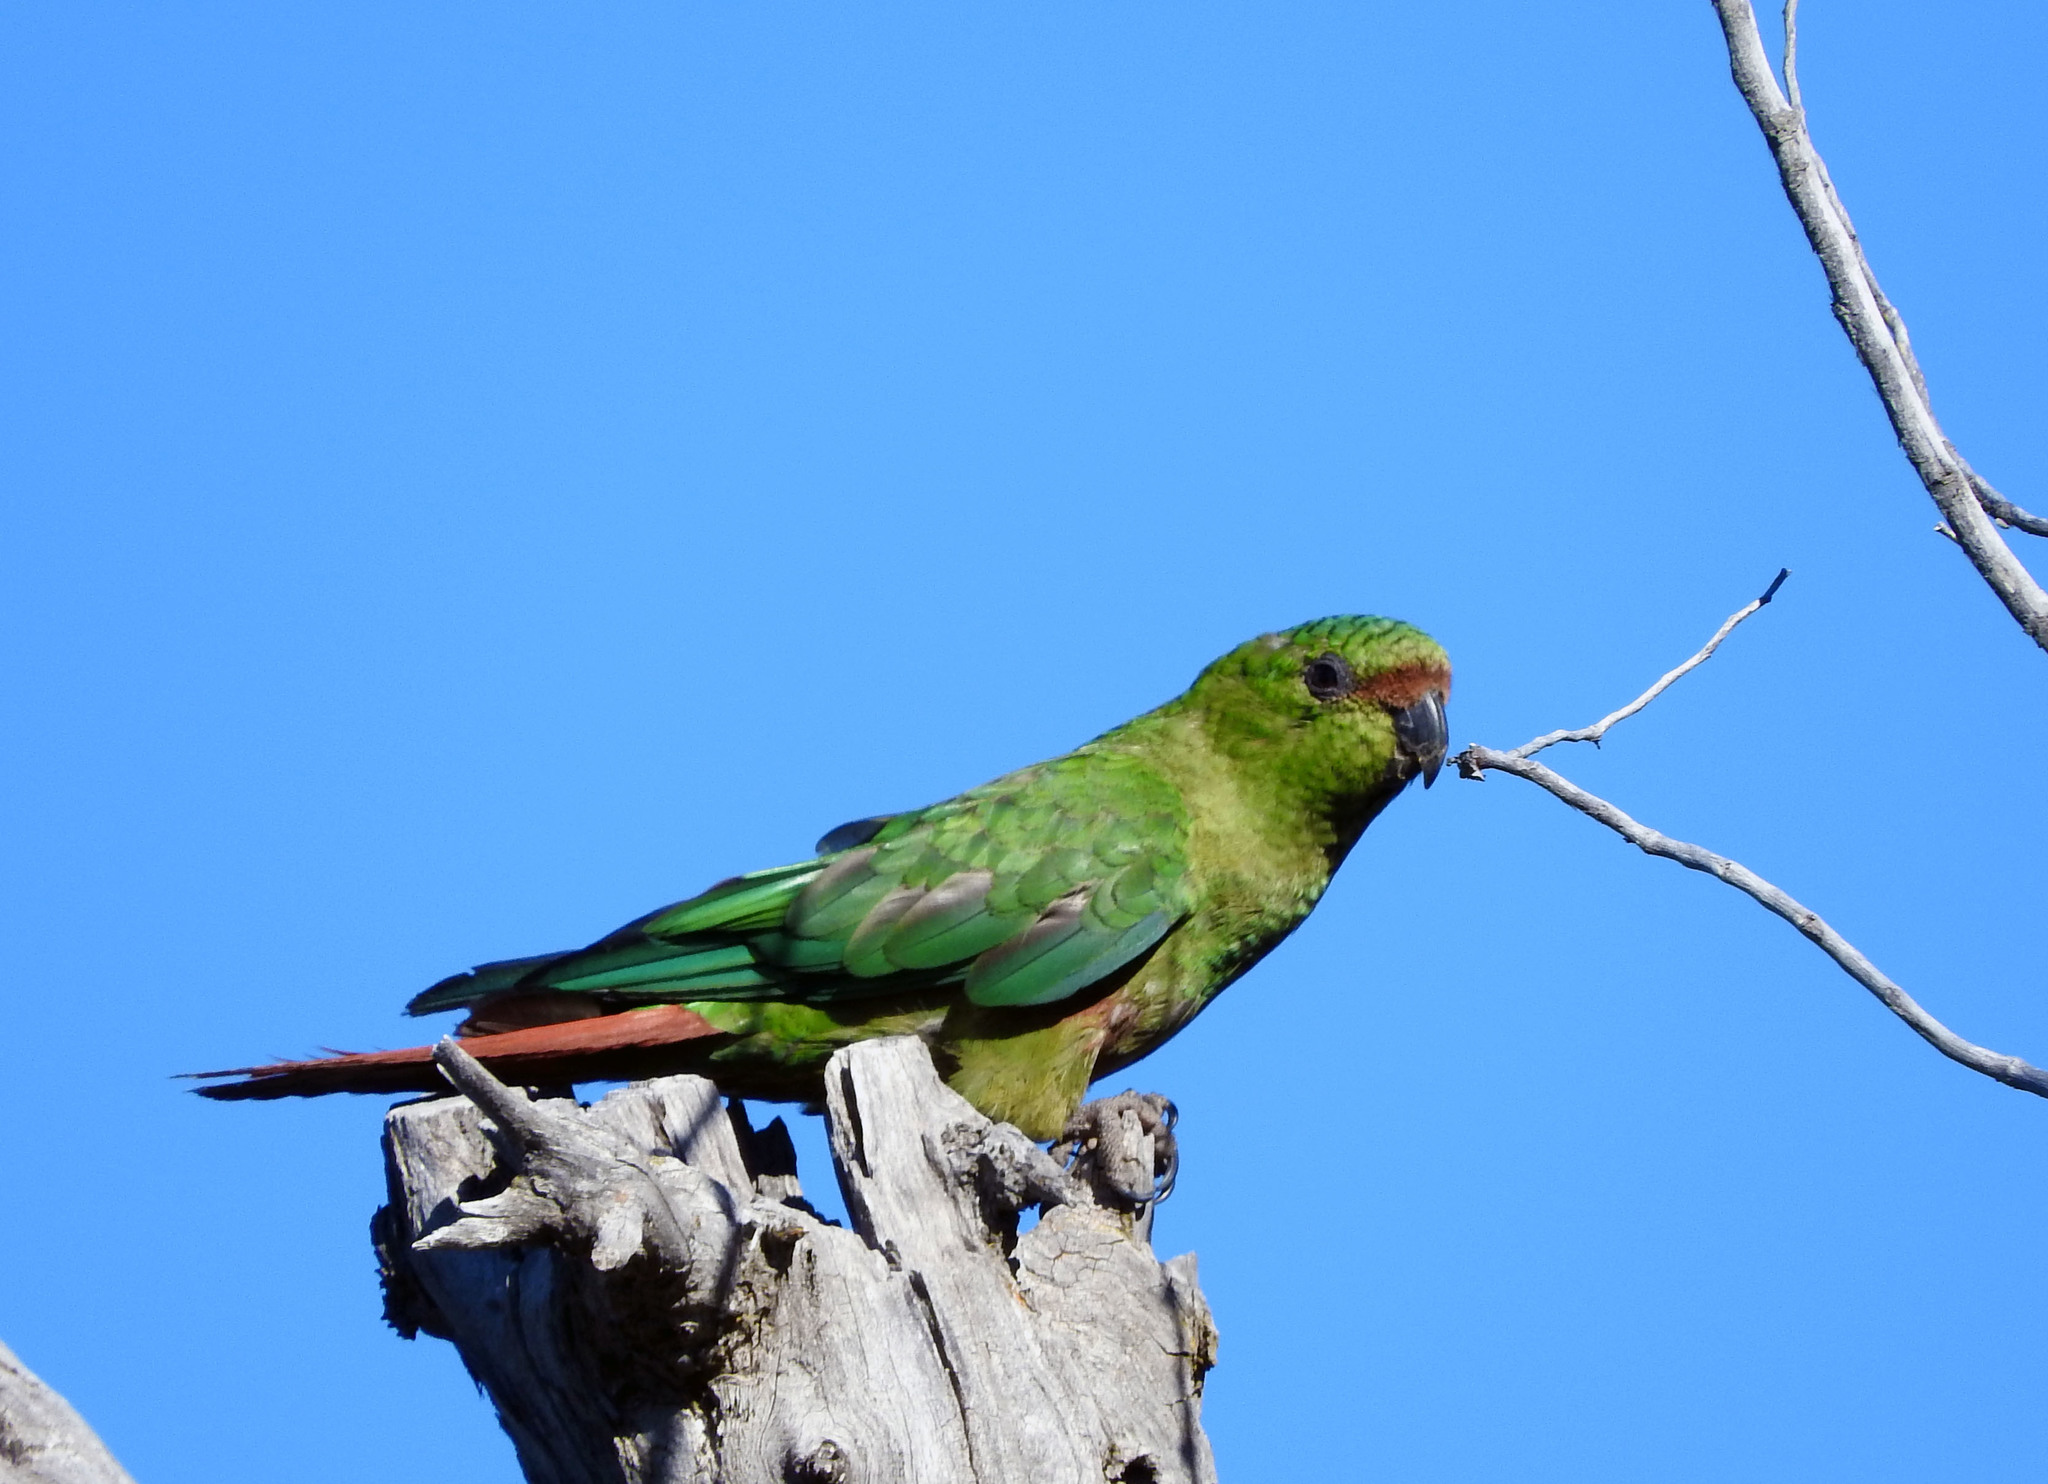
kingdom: Animalia
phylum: Chordata
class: Aves
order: Psittaciformes
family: Psittacidae
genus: Enicognathus
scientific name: Enicognathus ferrugineus
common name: Austral parakeet
